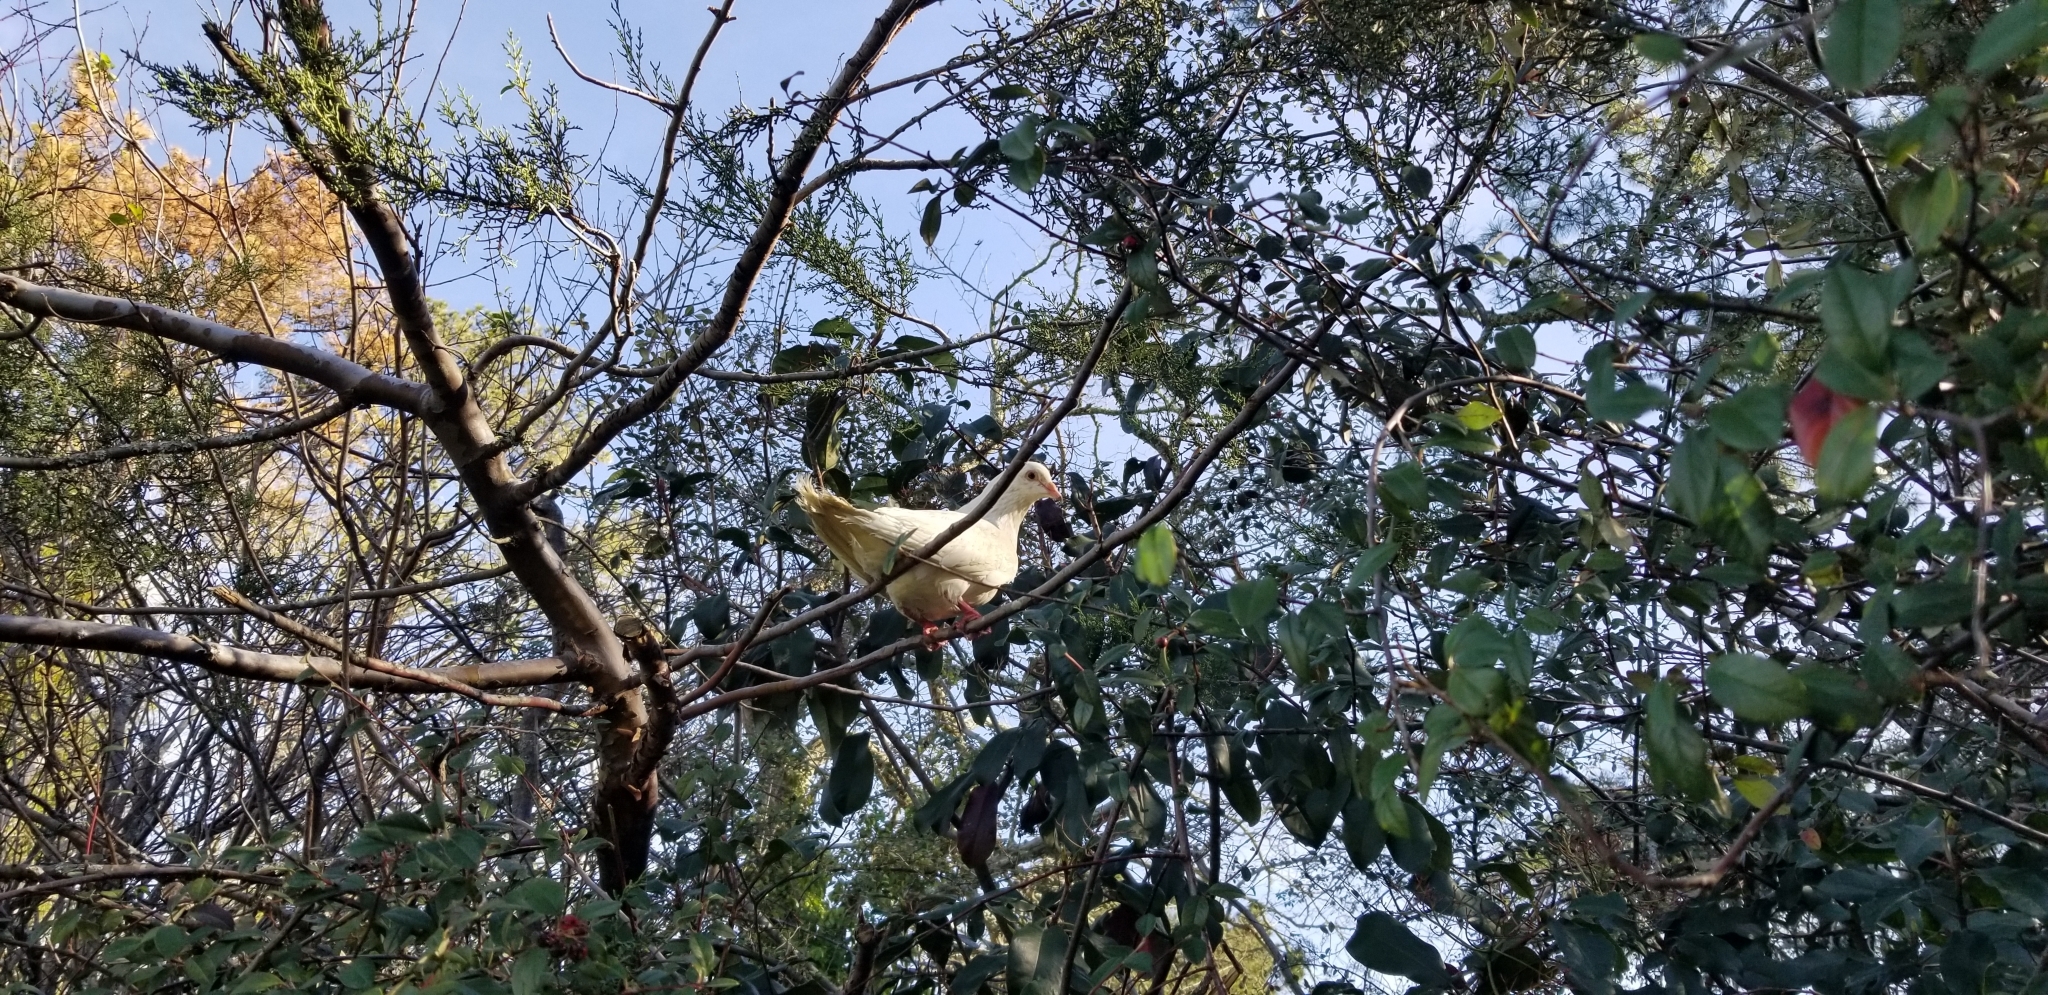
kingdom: Animalia
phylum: Chordata
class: Aves
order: Columbiformes
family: Columbidae
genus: Columba
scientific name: Columba livia
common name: Rock pigeon
